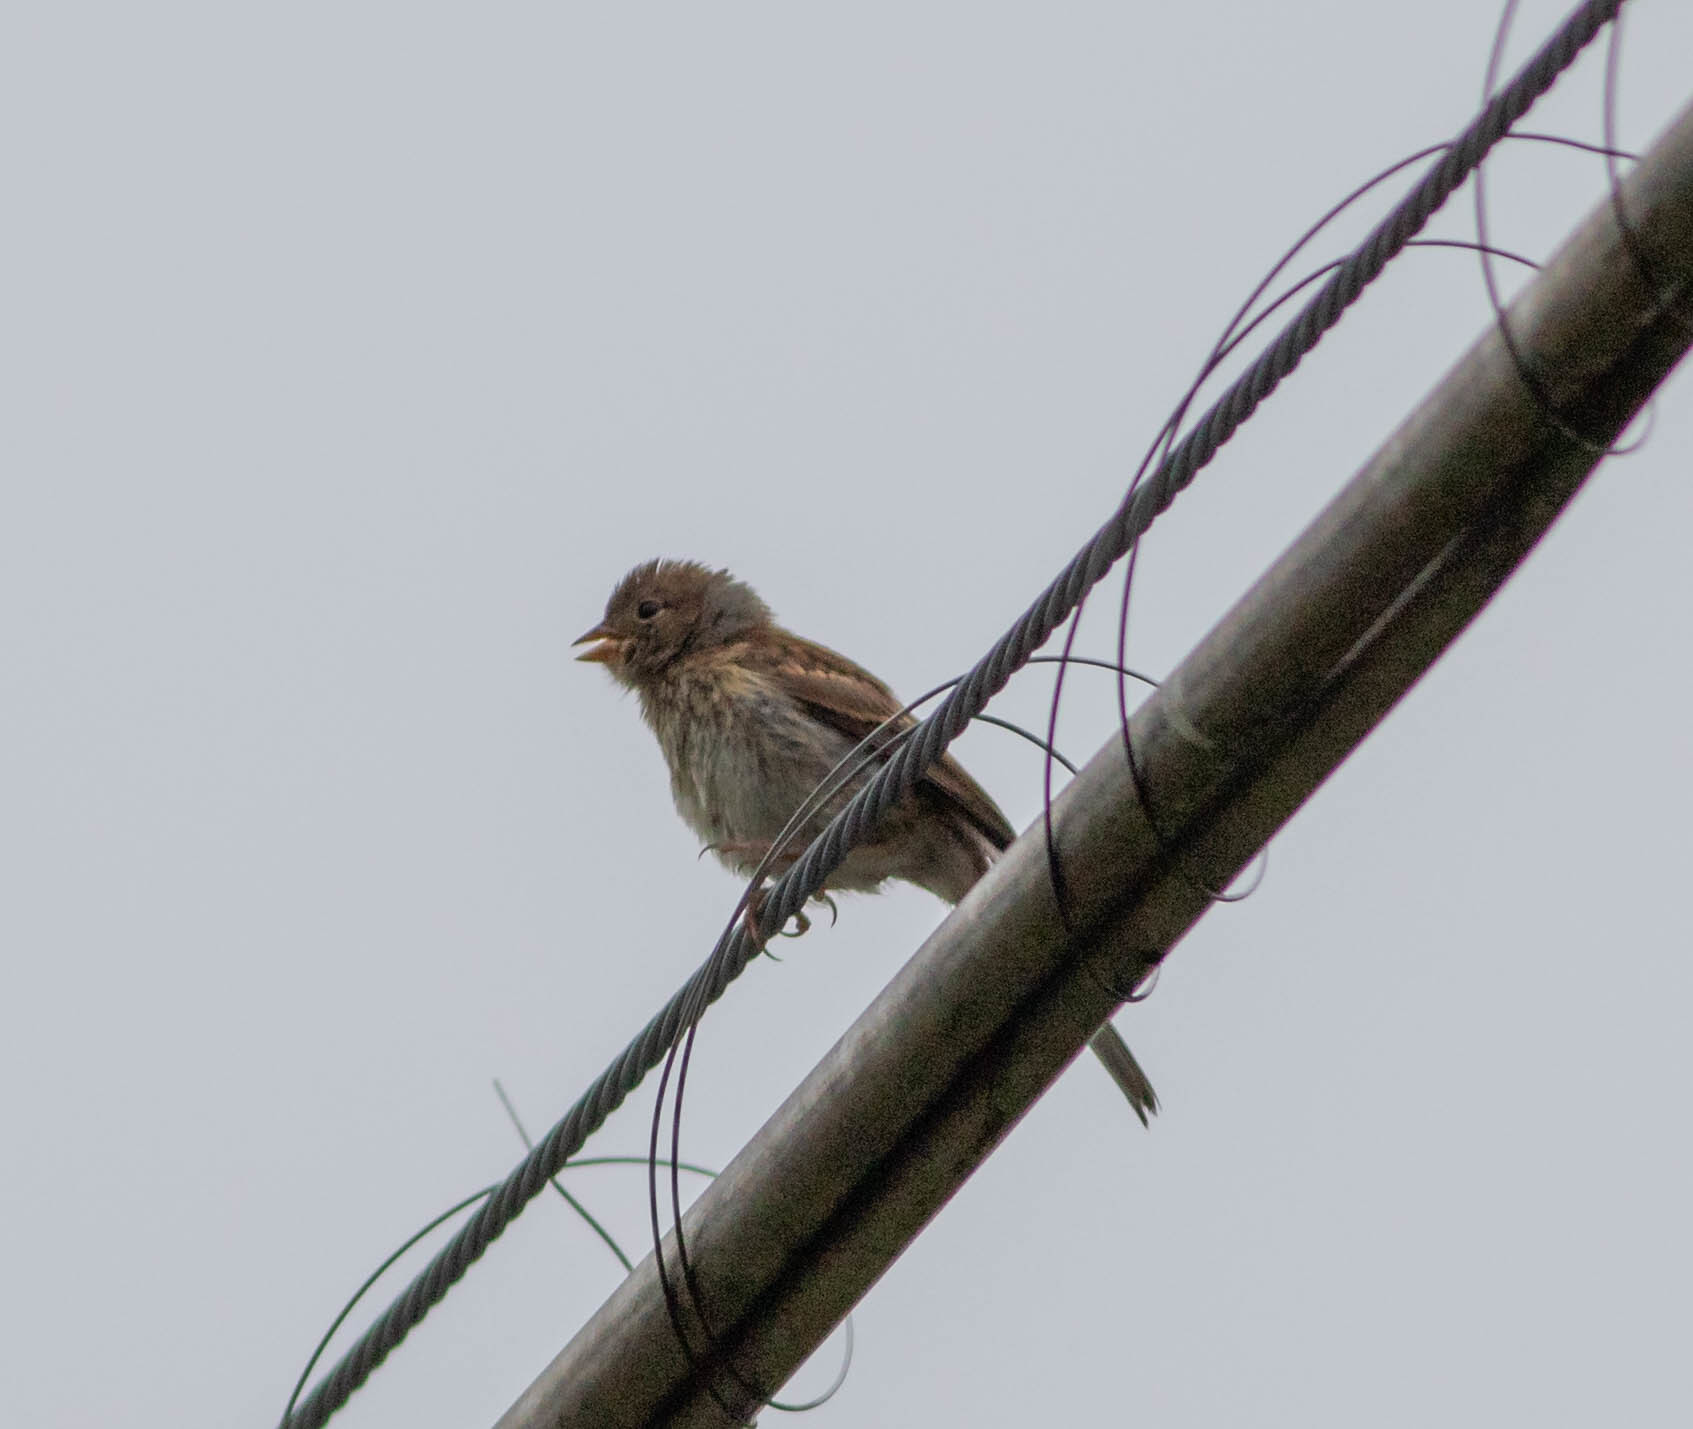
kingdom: Animalia
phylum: Chordata
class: Aves
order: Passeriformes
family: Passerellidae
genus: Spizella
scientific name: Spizella pusilla
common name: Field sparrow
